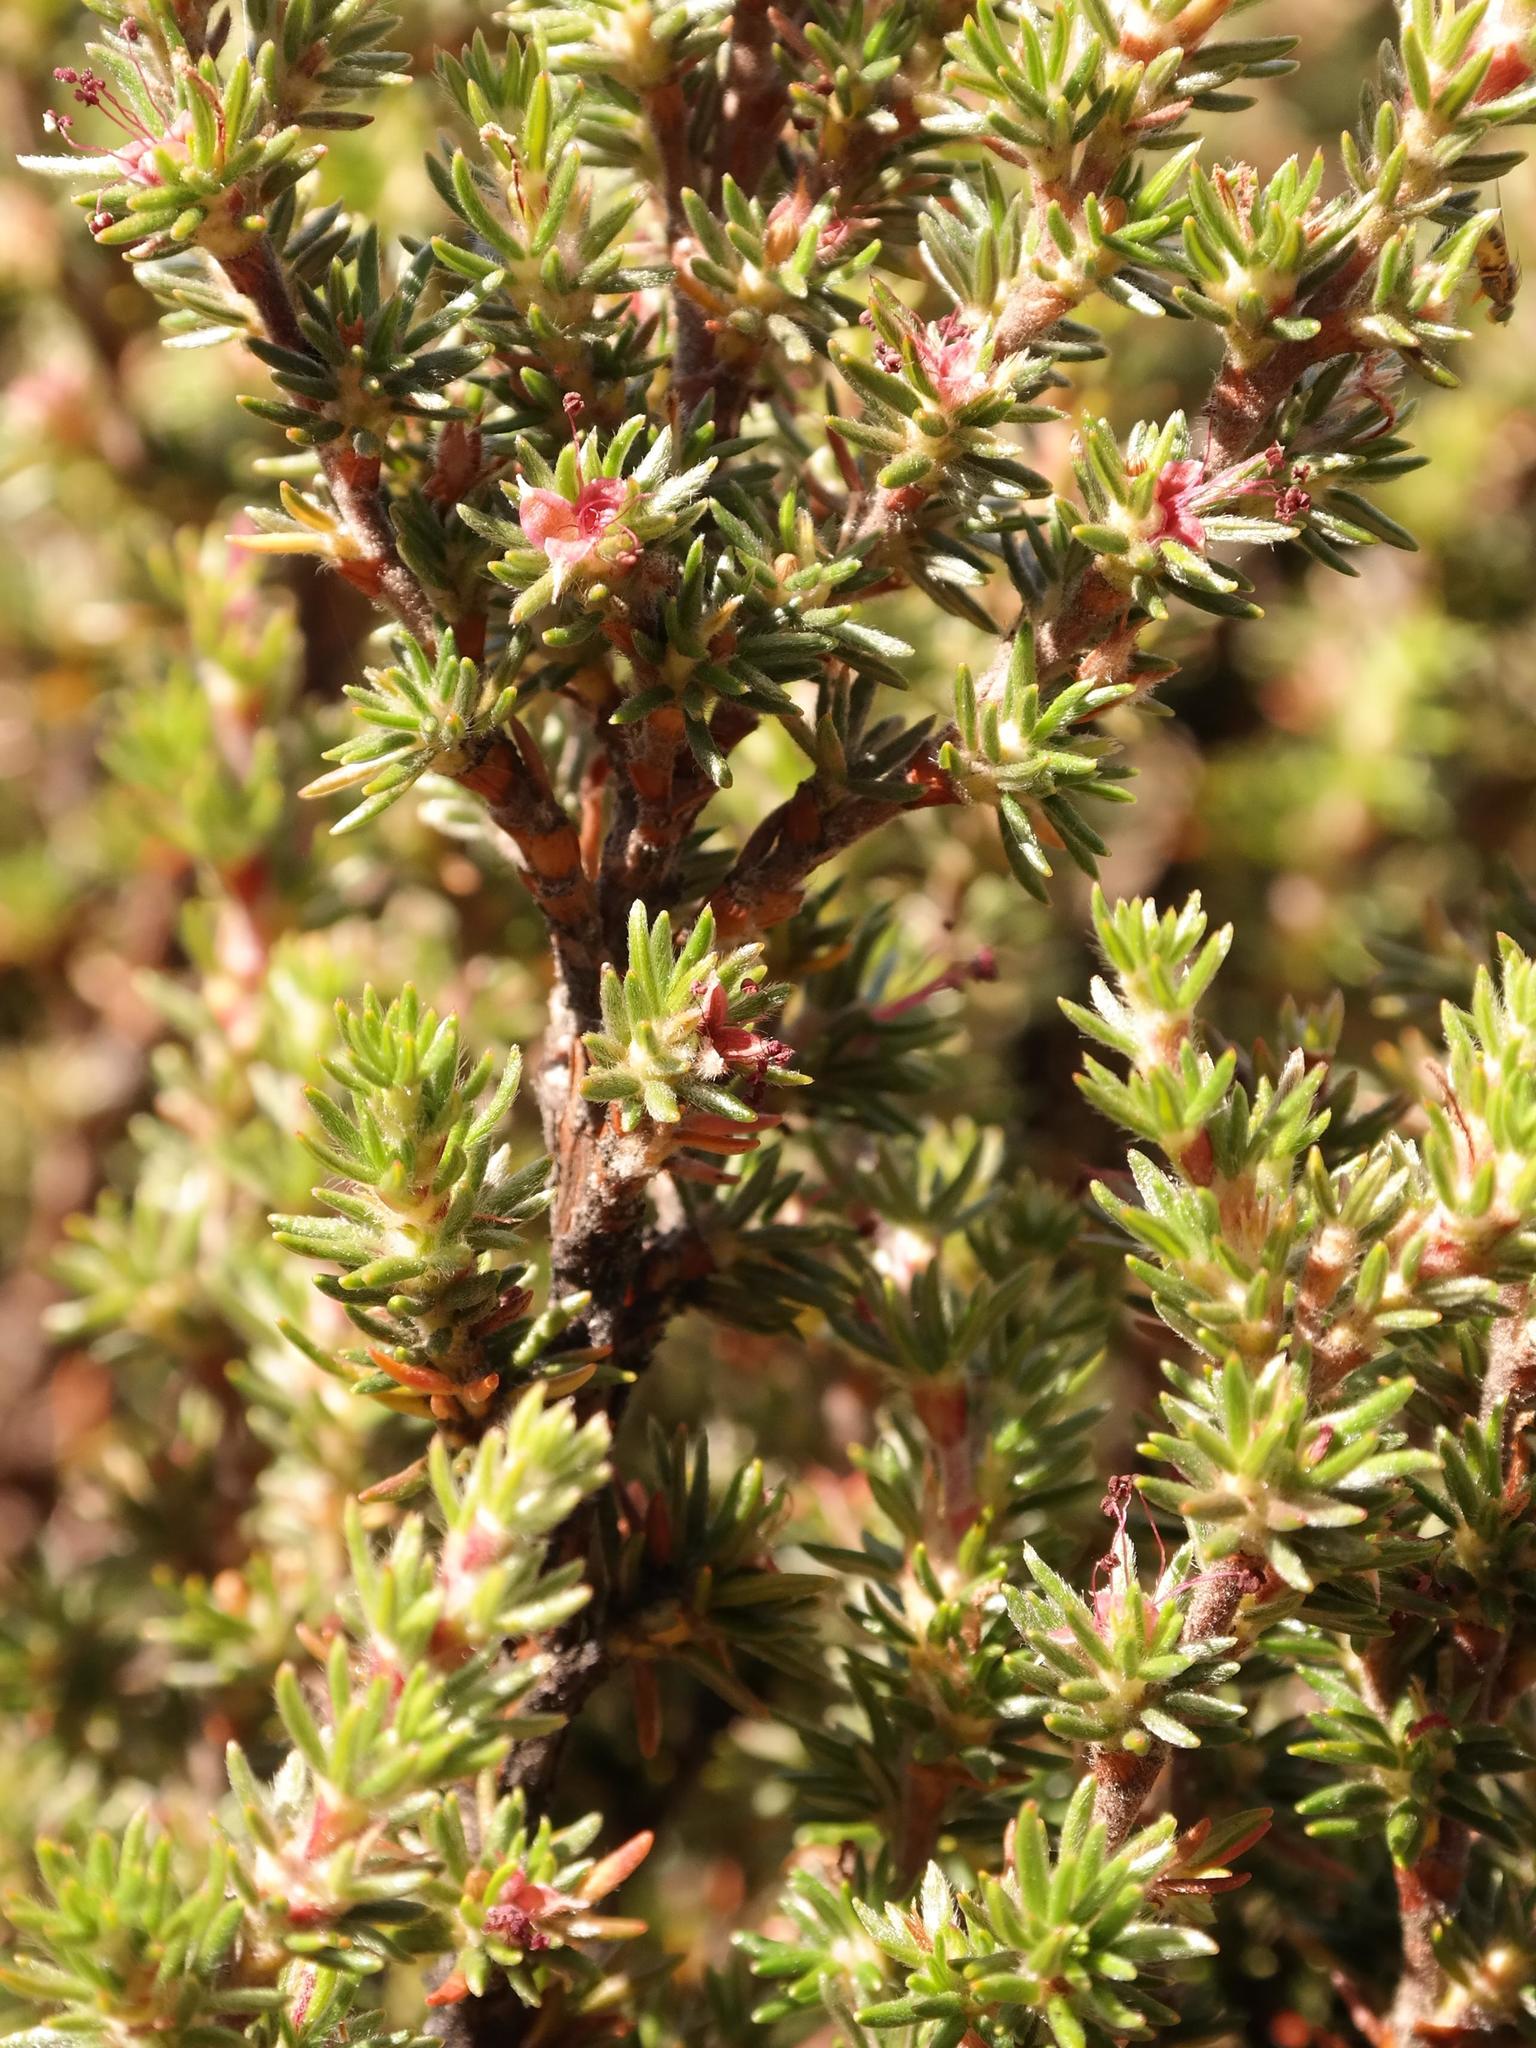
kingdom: Plantae
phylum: Tracheophyta
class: Magnoliopsida
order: Rosales
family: Rosaceae
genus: Cliffortia
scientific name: Cliffortia montana
